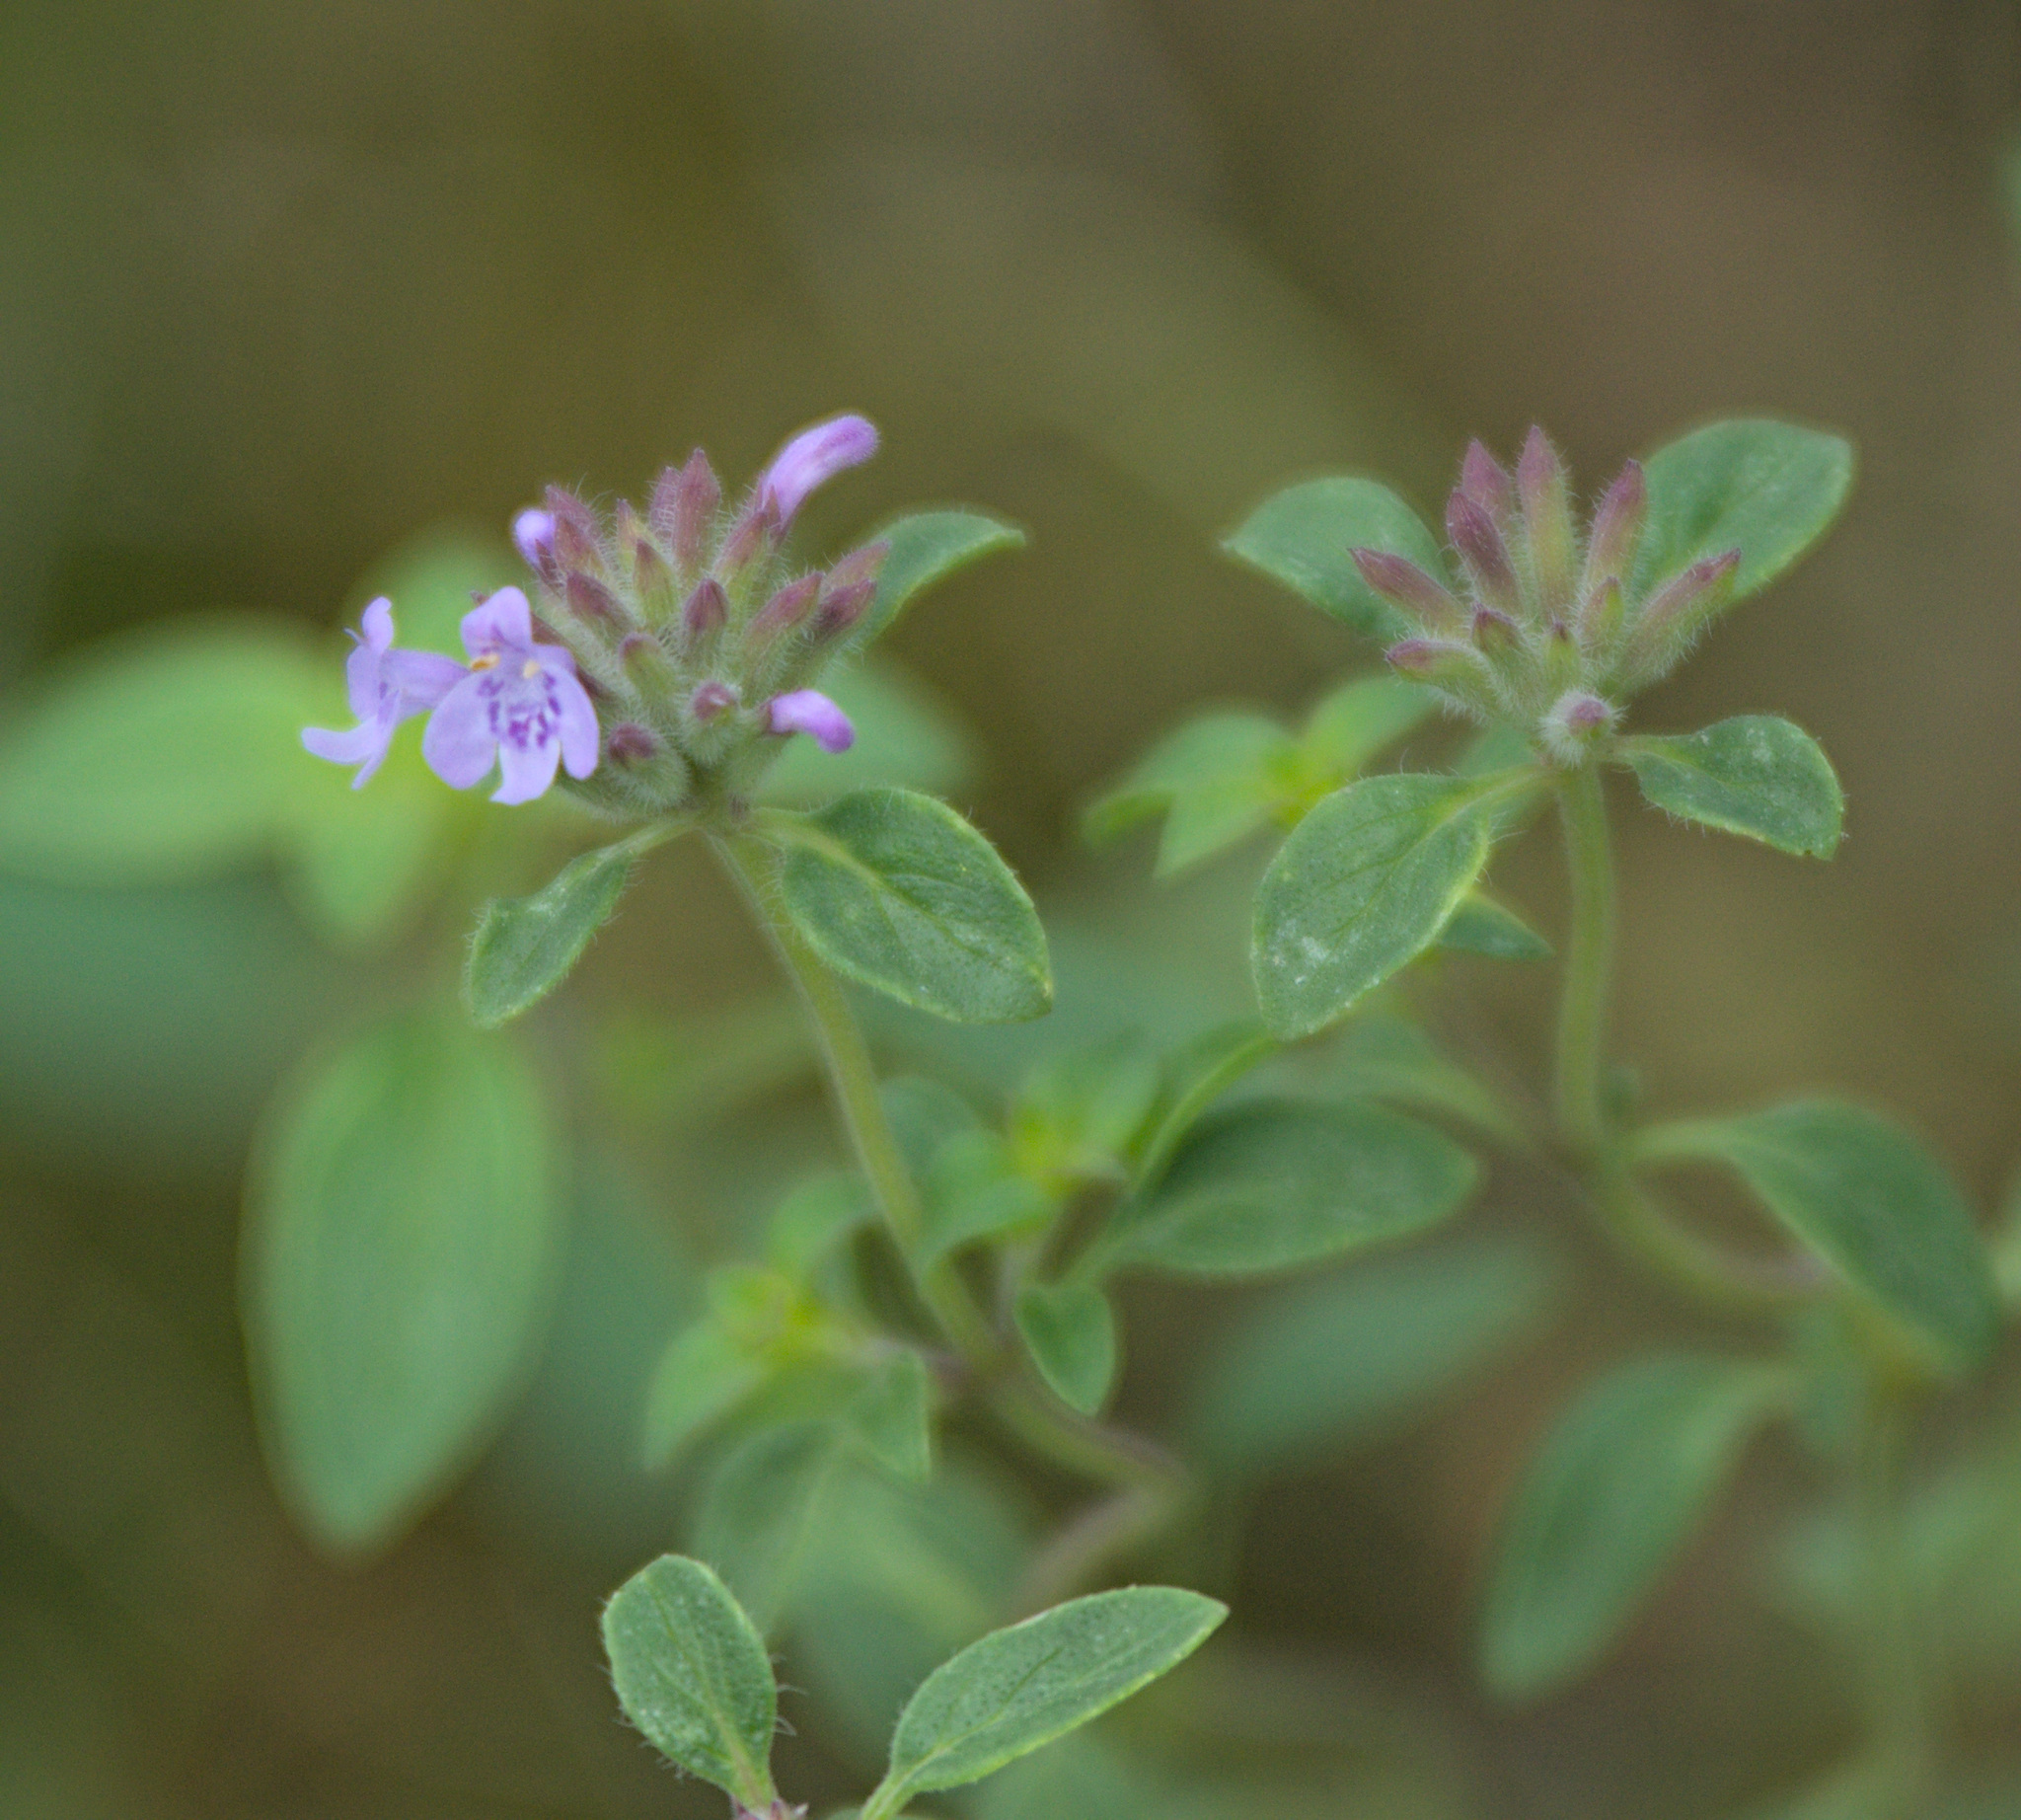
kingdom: Plantae
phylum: Tracheophyta
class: Magnoliopsida
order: Lamiales
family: Lamiaceae
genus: Ziziphora
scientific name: Ziziphora clinopodioides
